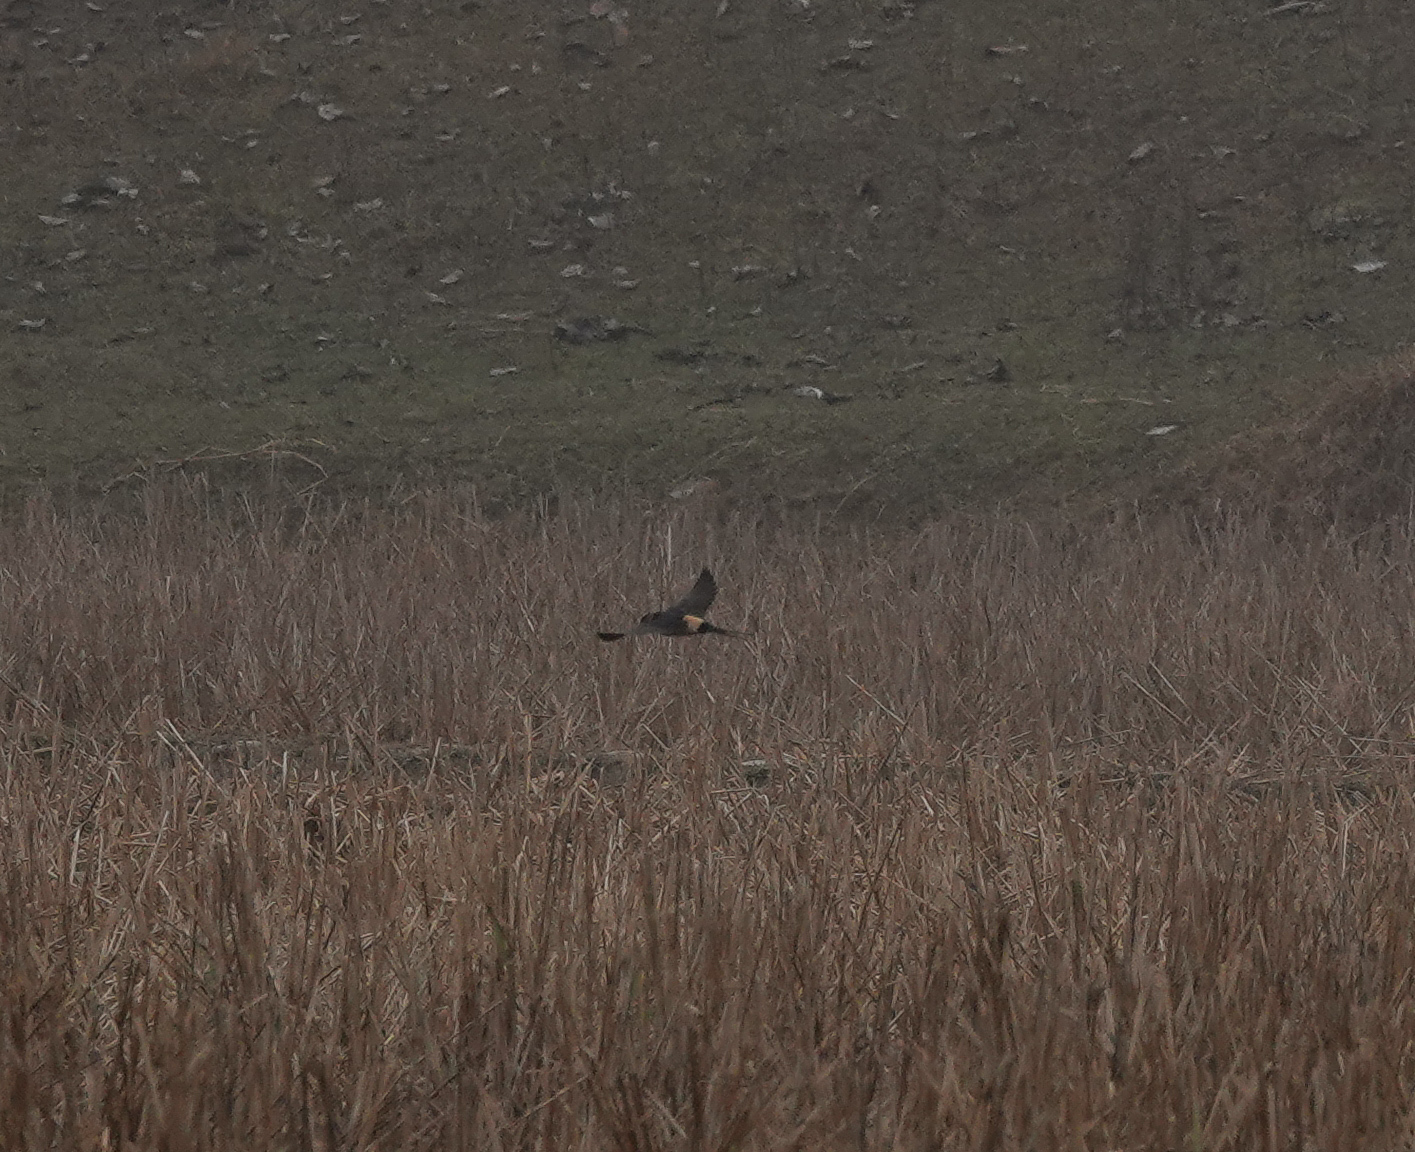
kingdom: Animalia
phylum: Chordata
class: Aves
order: Passeriformes
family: Hirundinidae
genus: Cecropis
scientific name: Cecropis daurica
